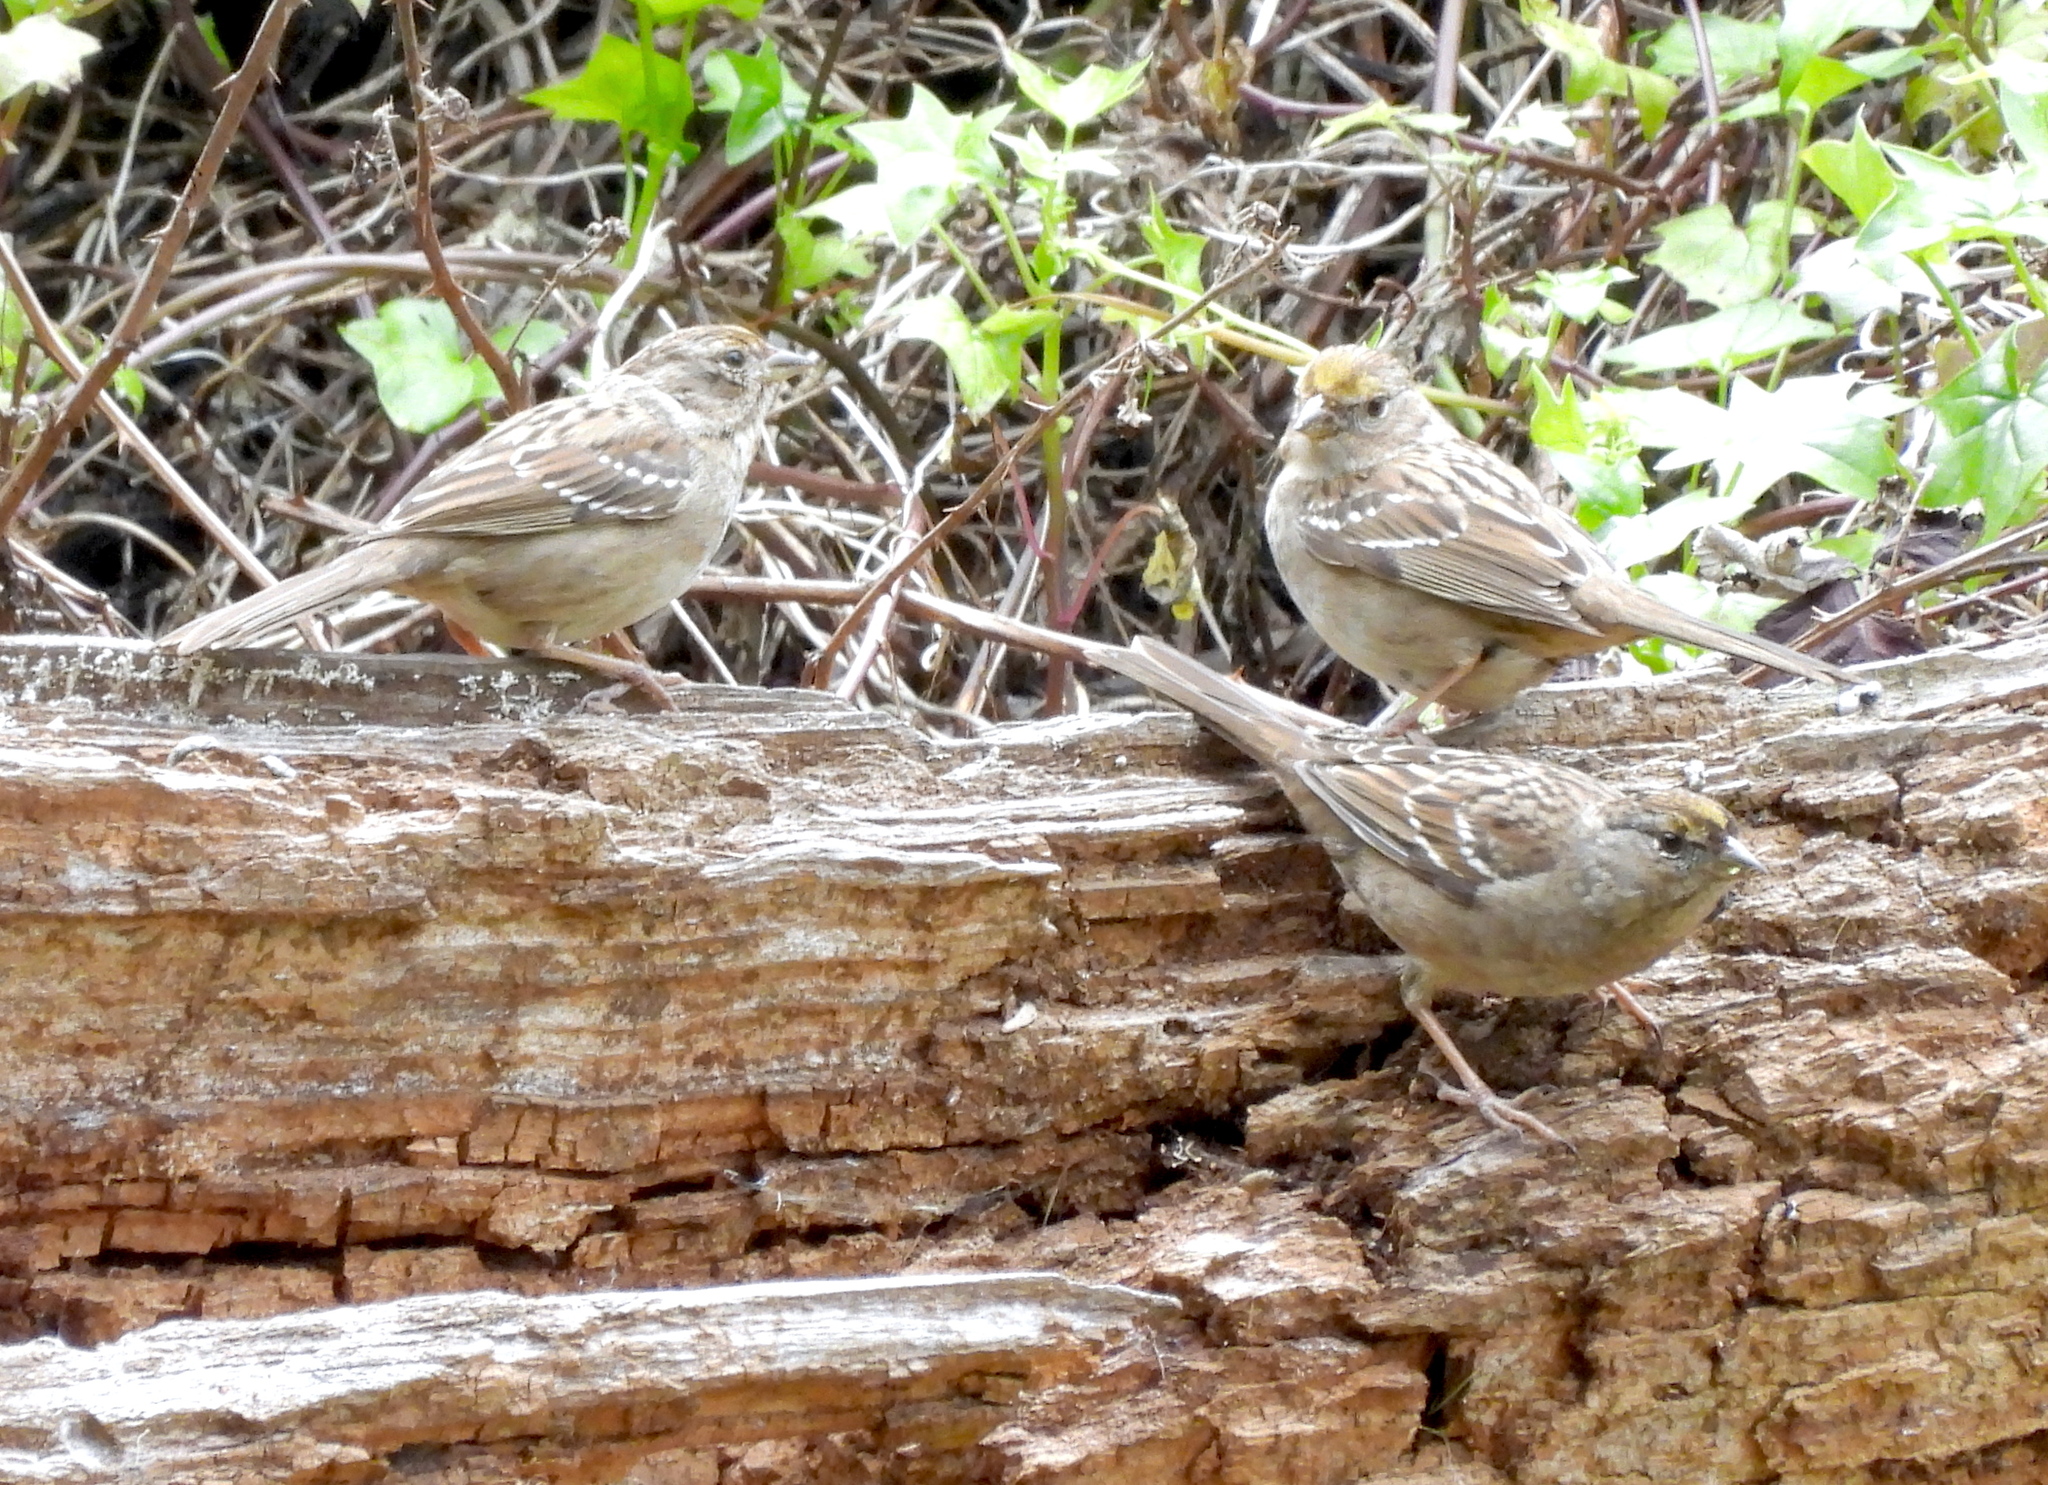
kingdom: Animalia
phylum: Chordata
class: Aves
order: Passeriformes
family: Passerellidae
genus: Zonotrichia
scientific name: Zonotrichia atricapilla
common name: Golden-crowned sparrow
